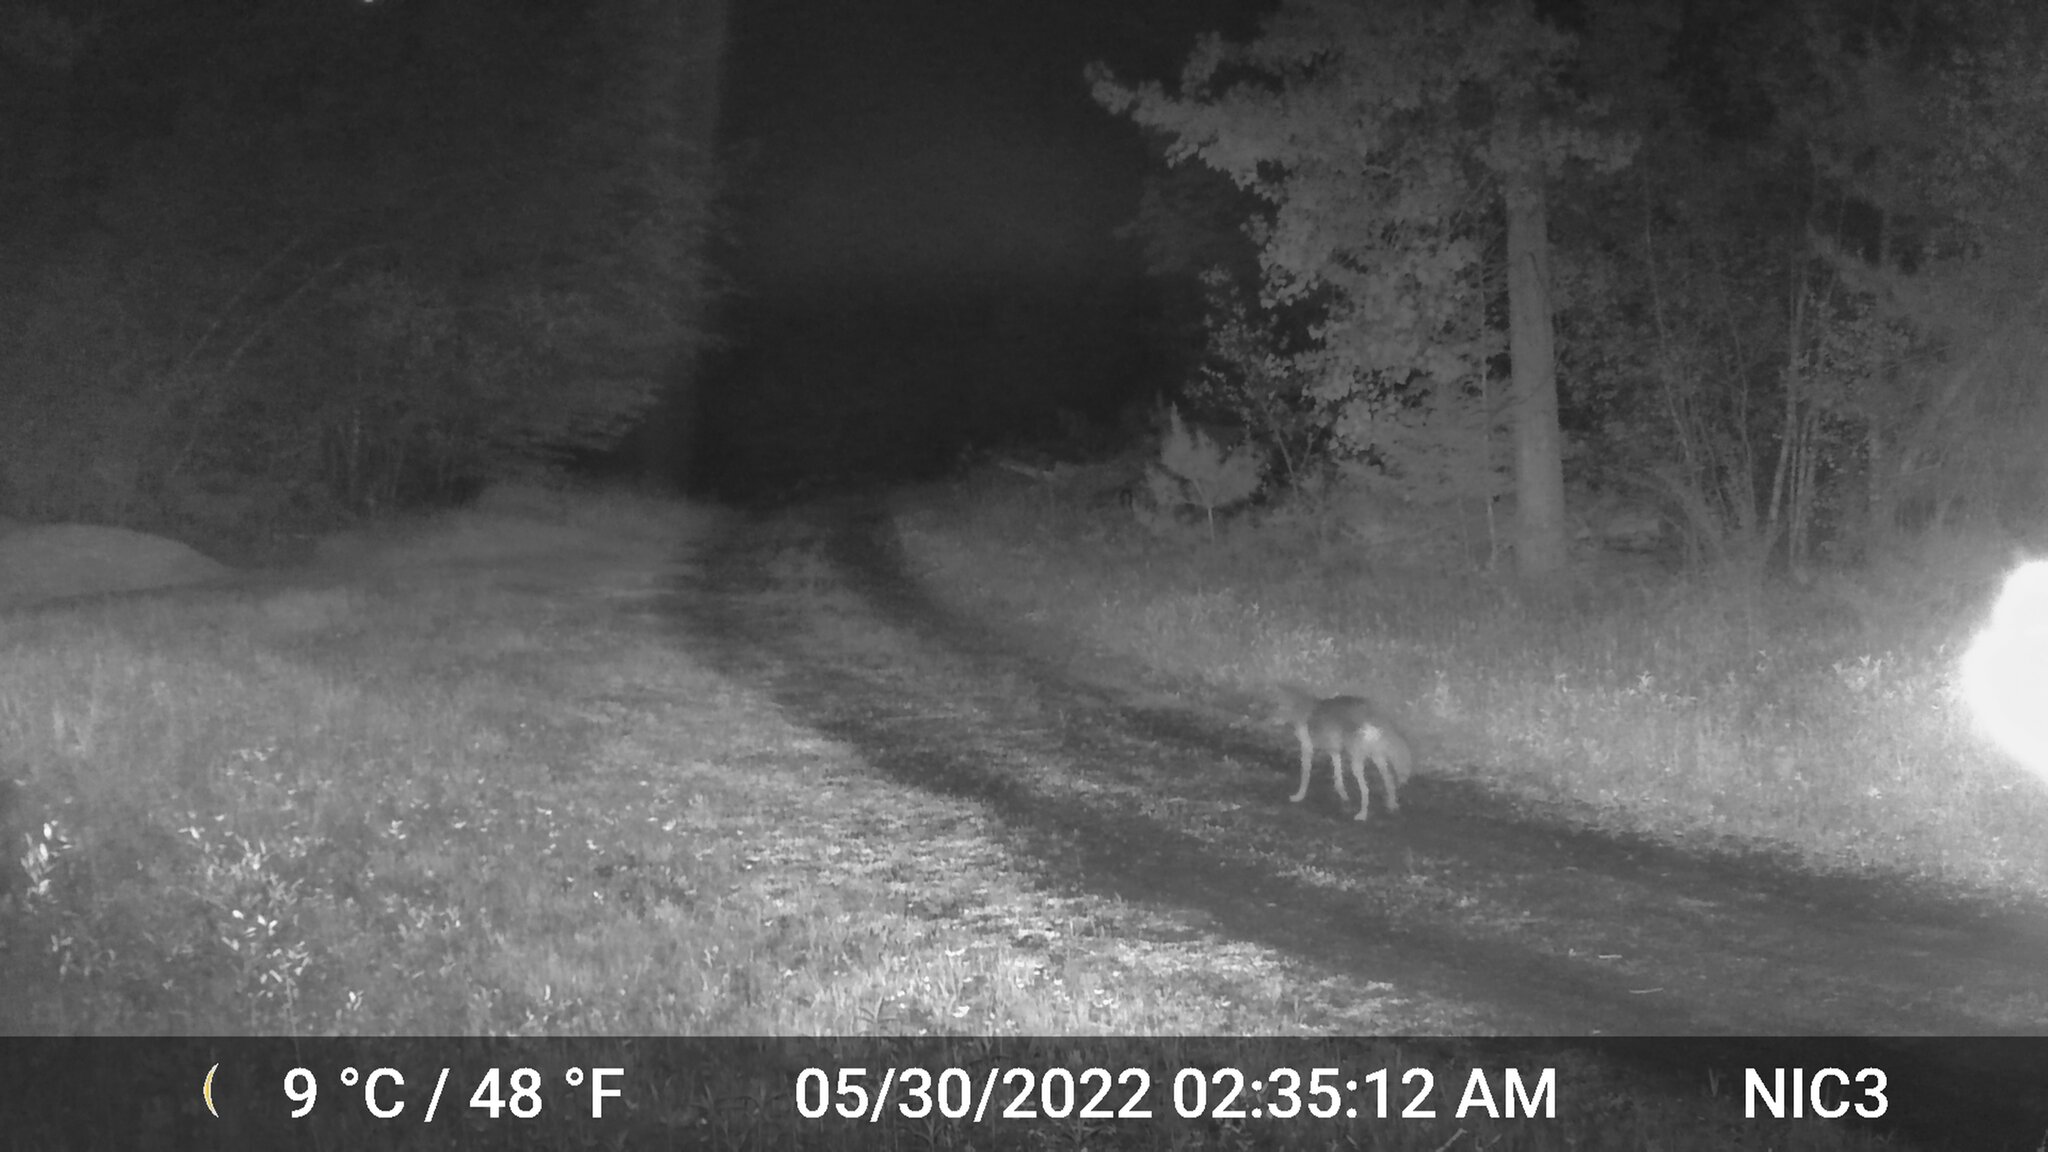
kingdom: Animalia
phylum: Chordata
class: Mammalia
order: Carnivora
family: Canidae
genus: Canis
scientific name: Canis latrans
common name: Coyote
